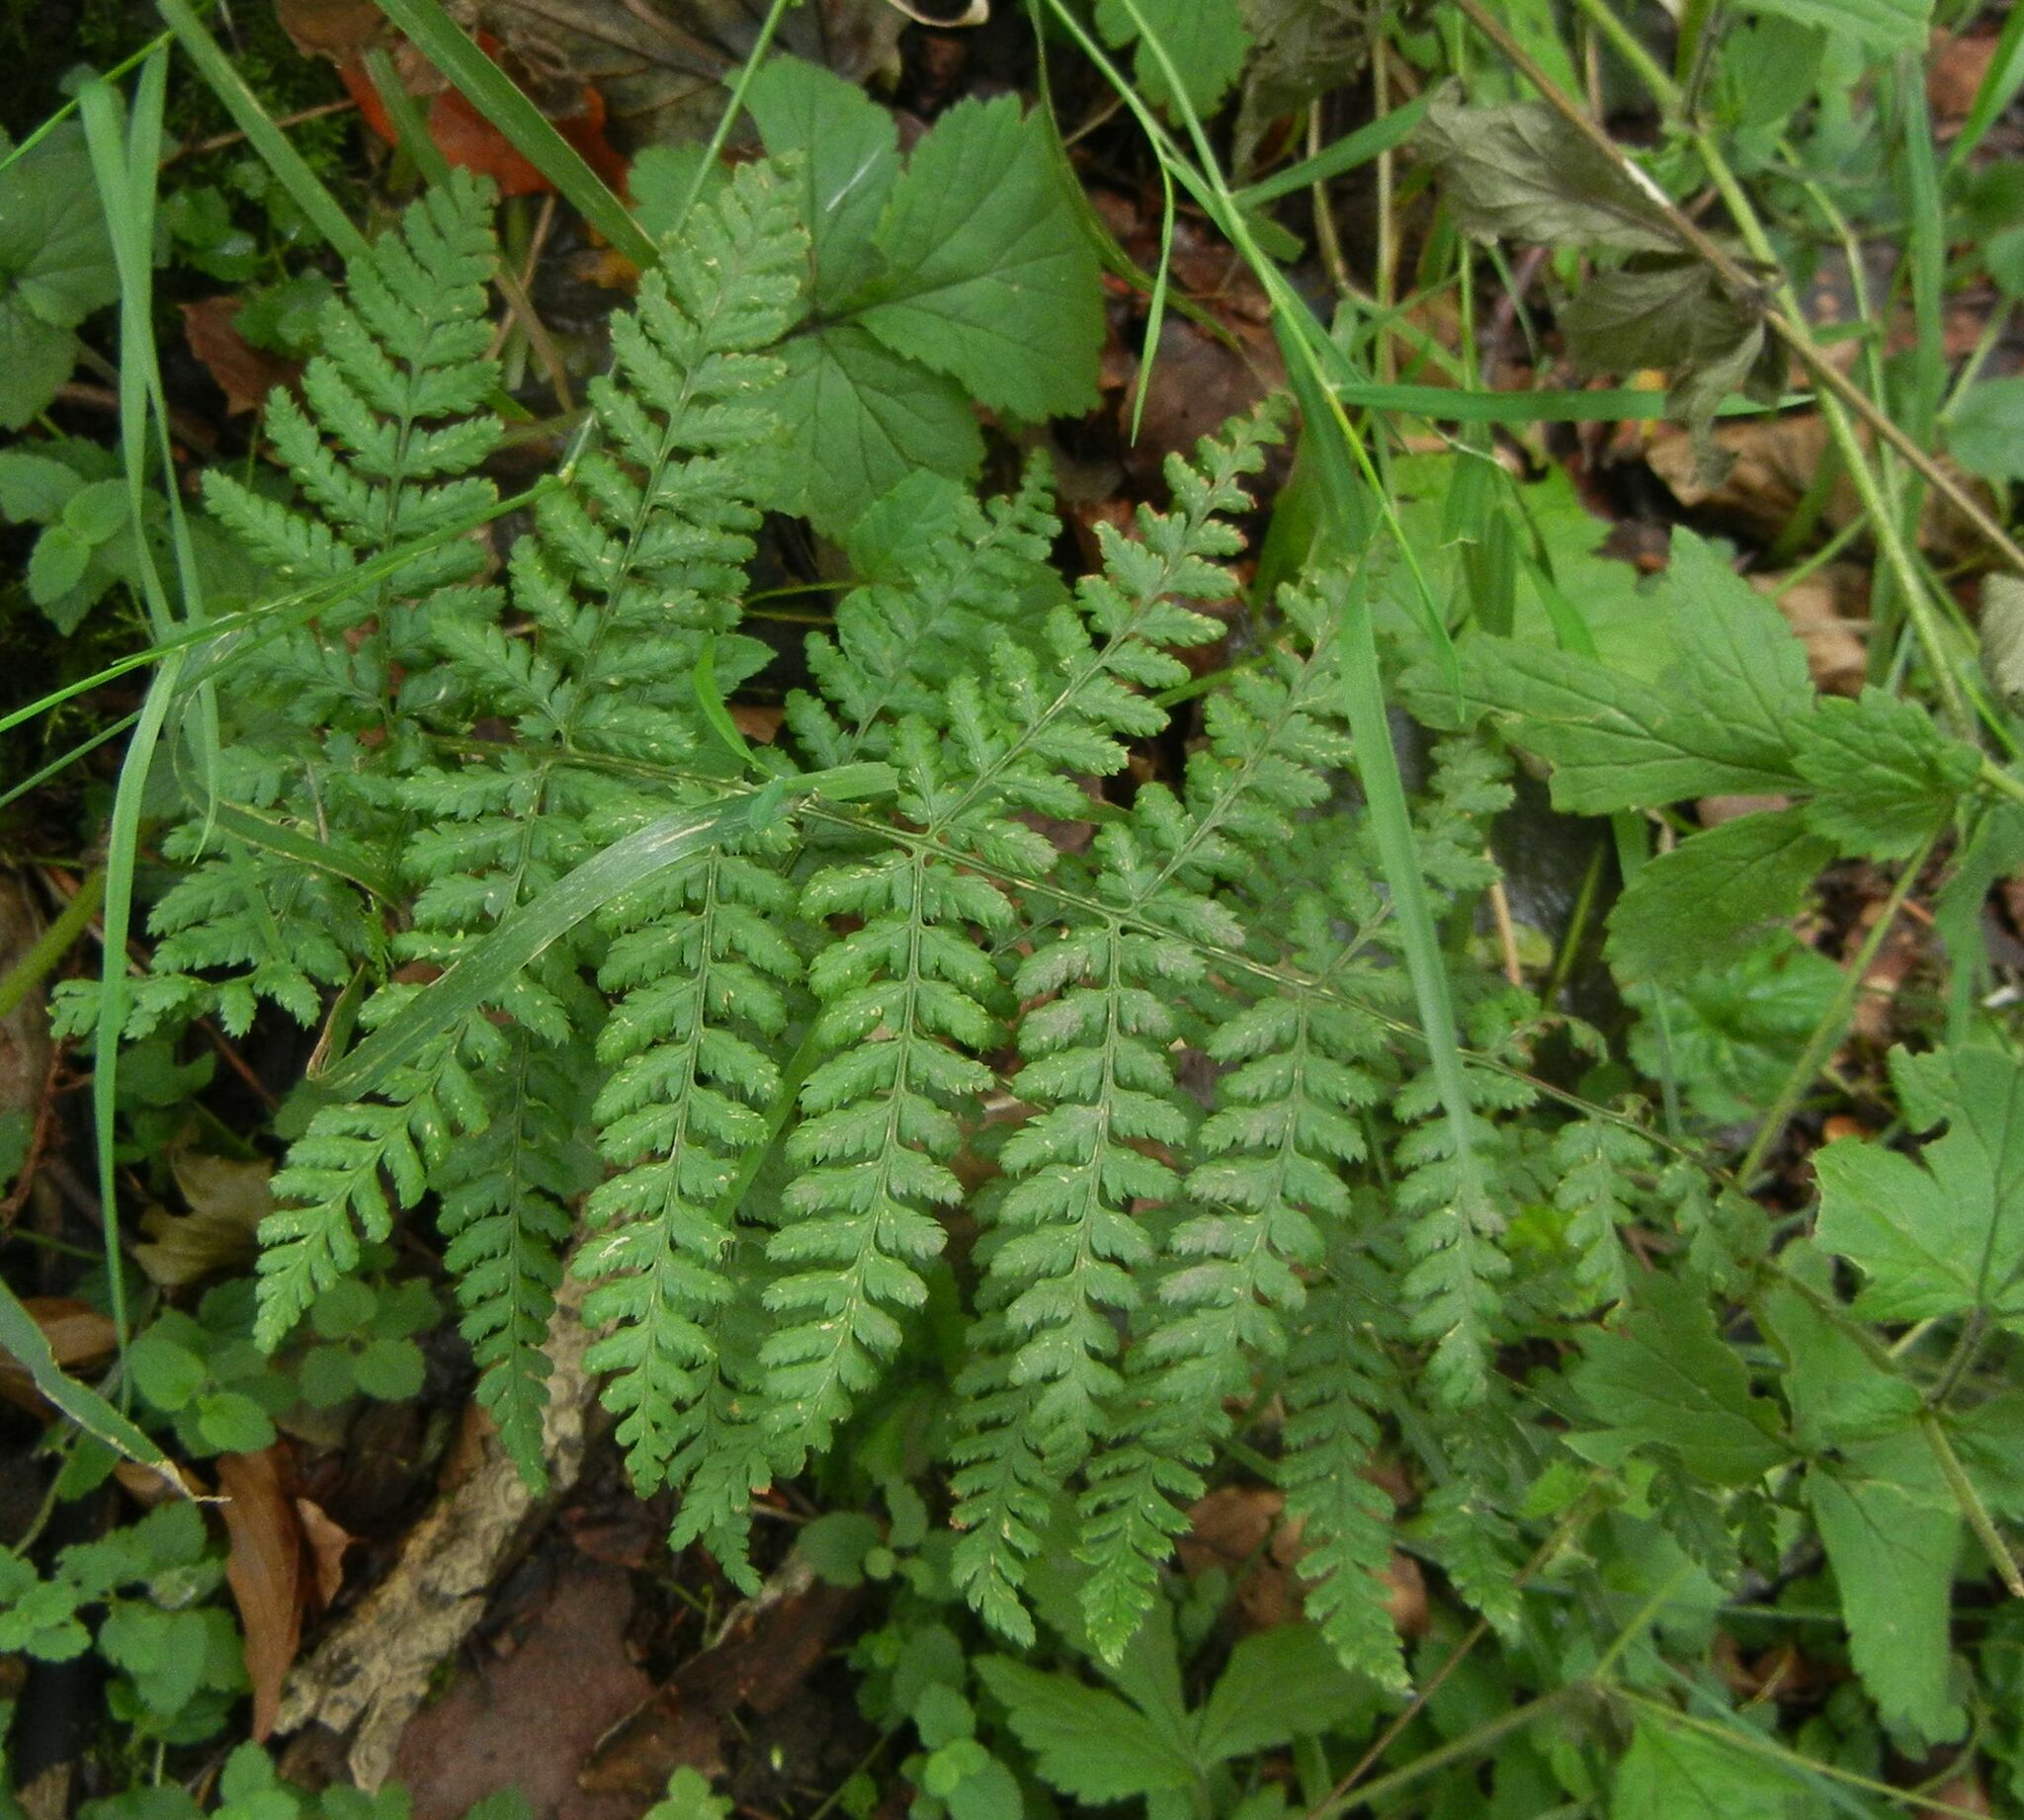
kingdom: Plantae
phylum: Tracheophyta
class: Polypodiopsida
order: Polypodiales
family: Dryopteridaceae
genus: Dryopteris
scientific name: Dryopteris dilatata
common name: Broad buckler-fern
